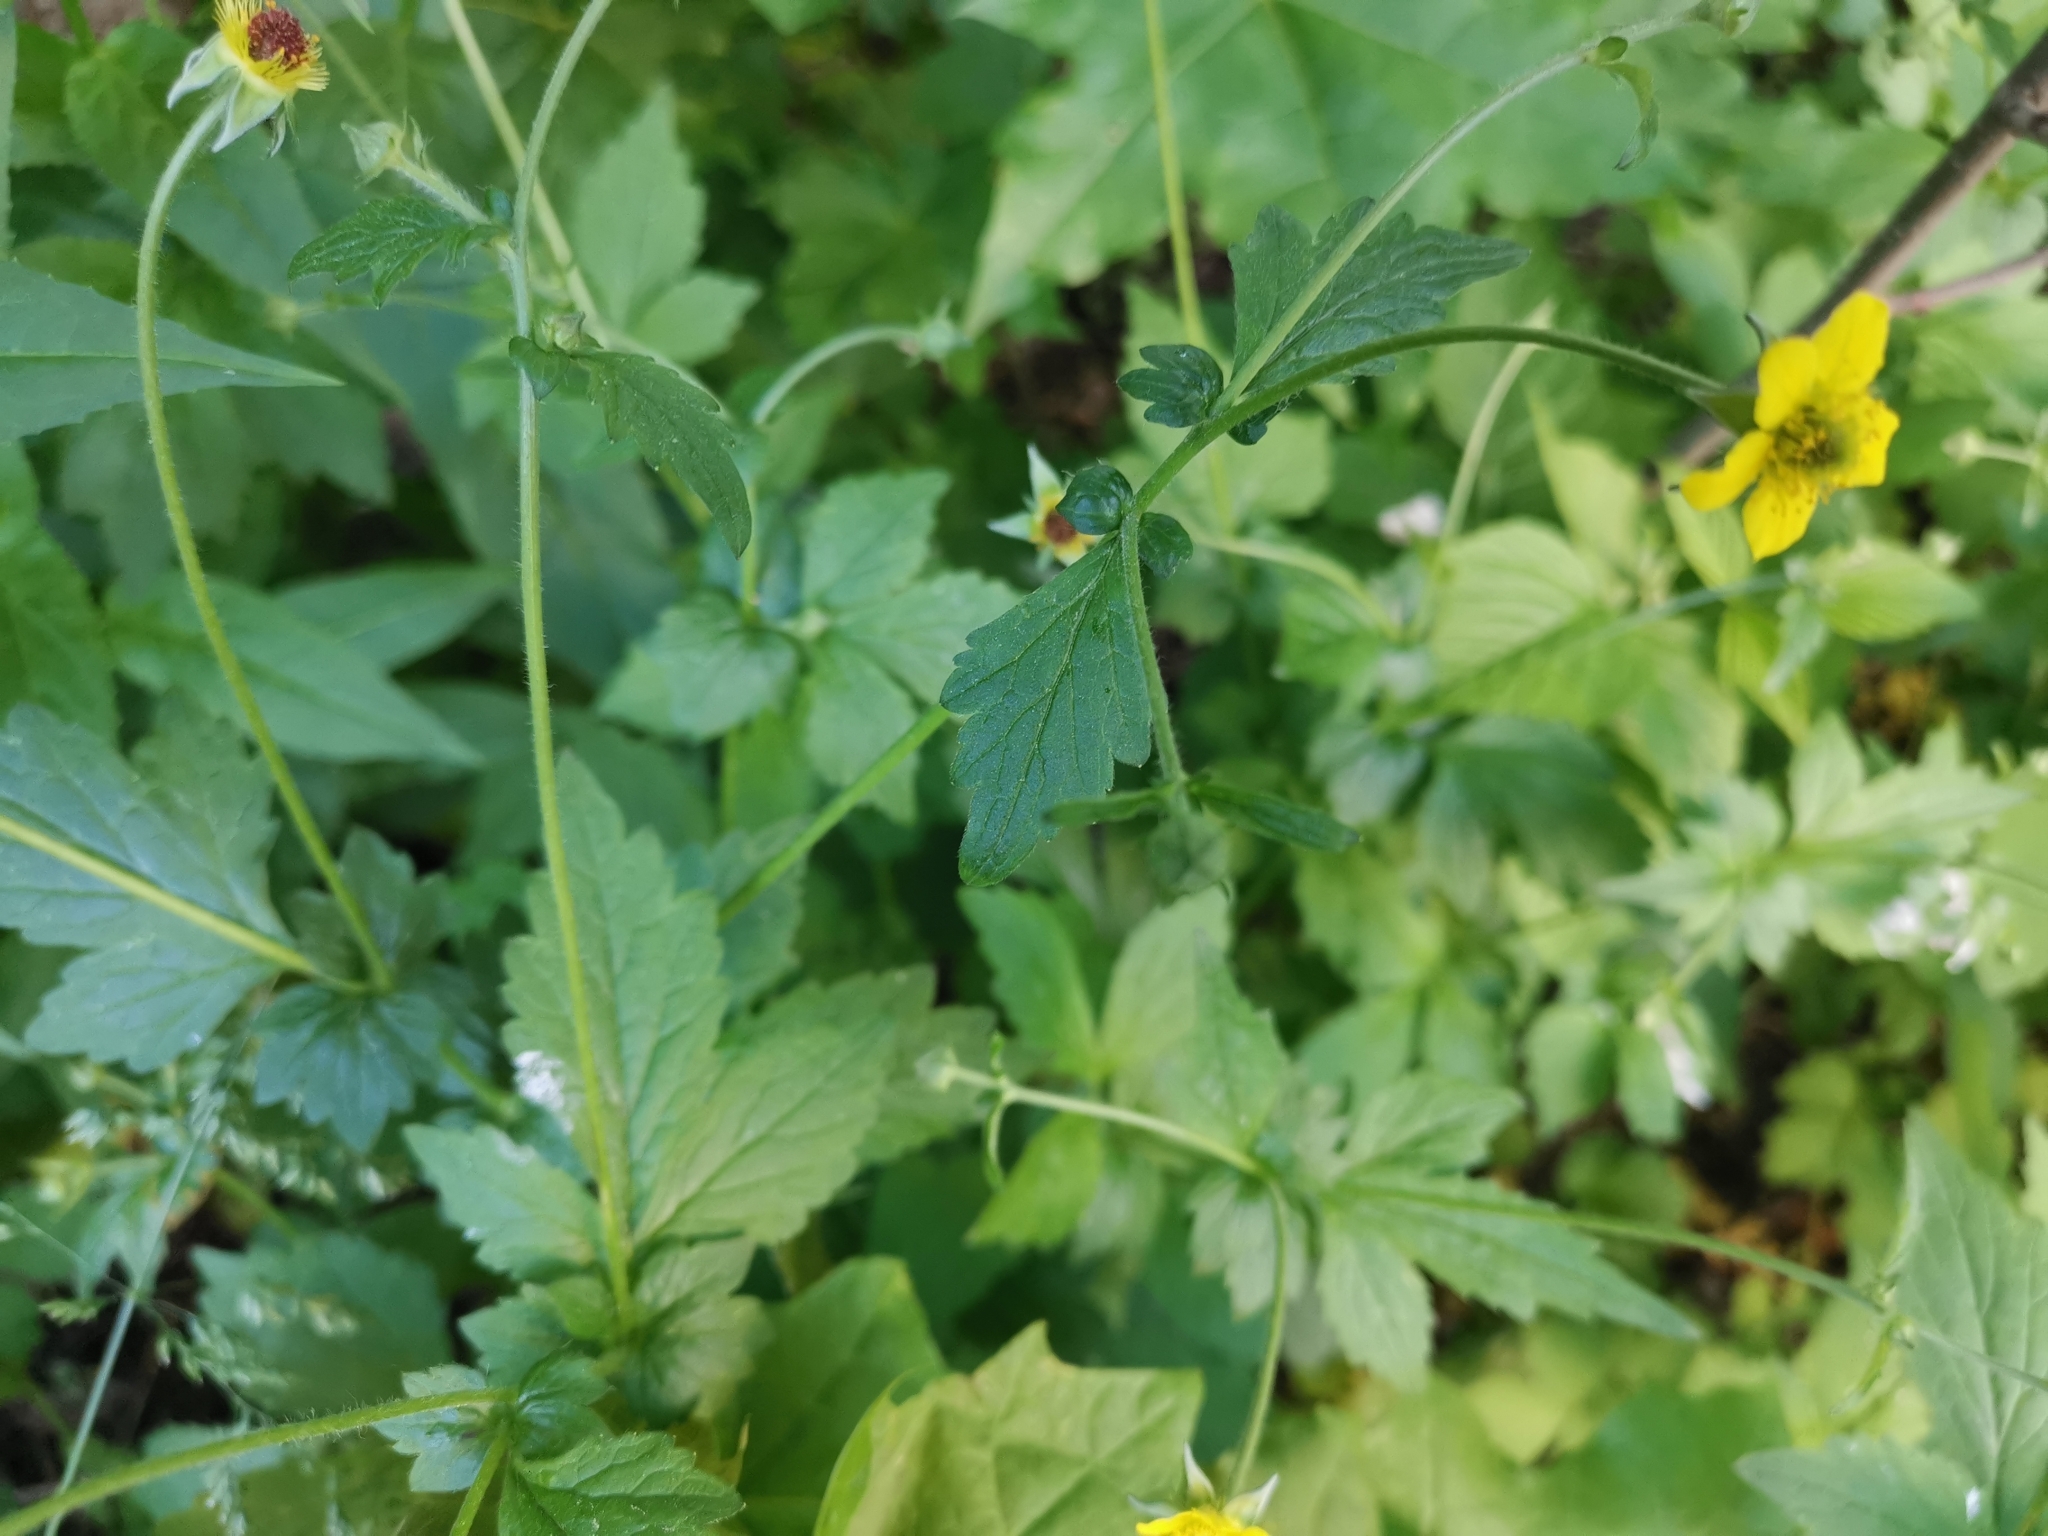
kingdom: Plantae
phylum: Tracheophyta
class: Magnoliopsida
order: Rosales
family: Rosaceae
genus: Geum
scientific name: Geum urbanum
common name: Wood avens
